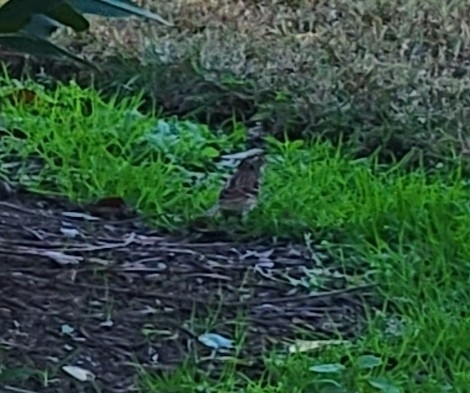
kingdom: Animalia
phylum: Chordata
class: Aves
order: Passeriformes
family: Passerellidae
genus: Zonotrichia
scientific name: Zonotrichia albicollis
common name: White-throated sparrow
